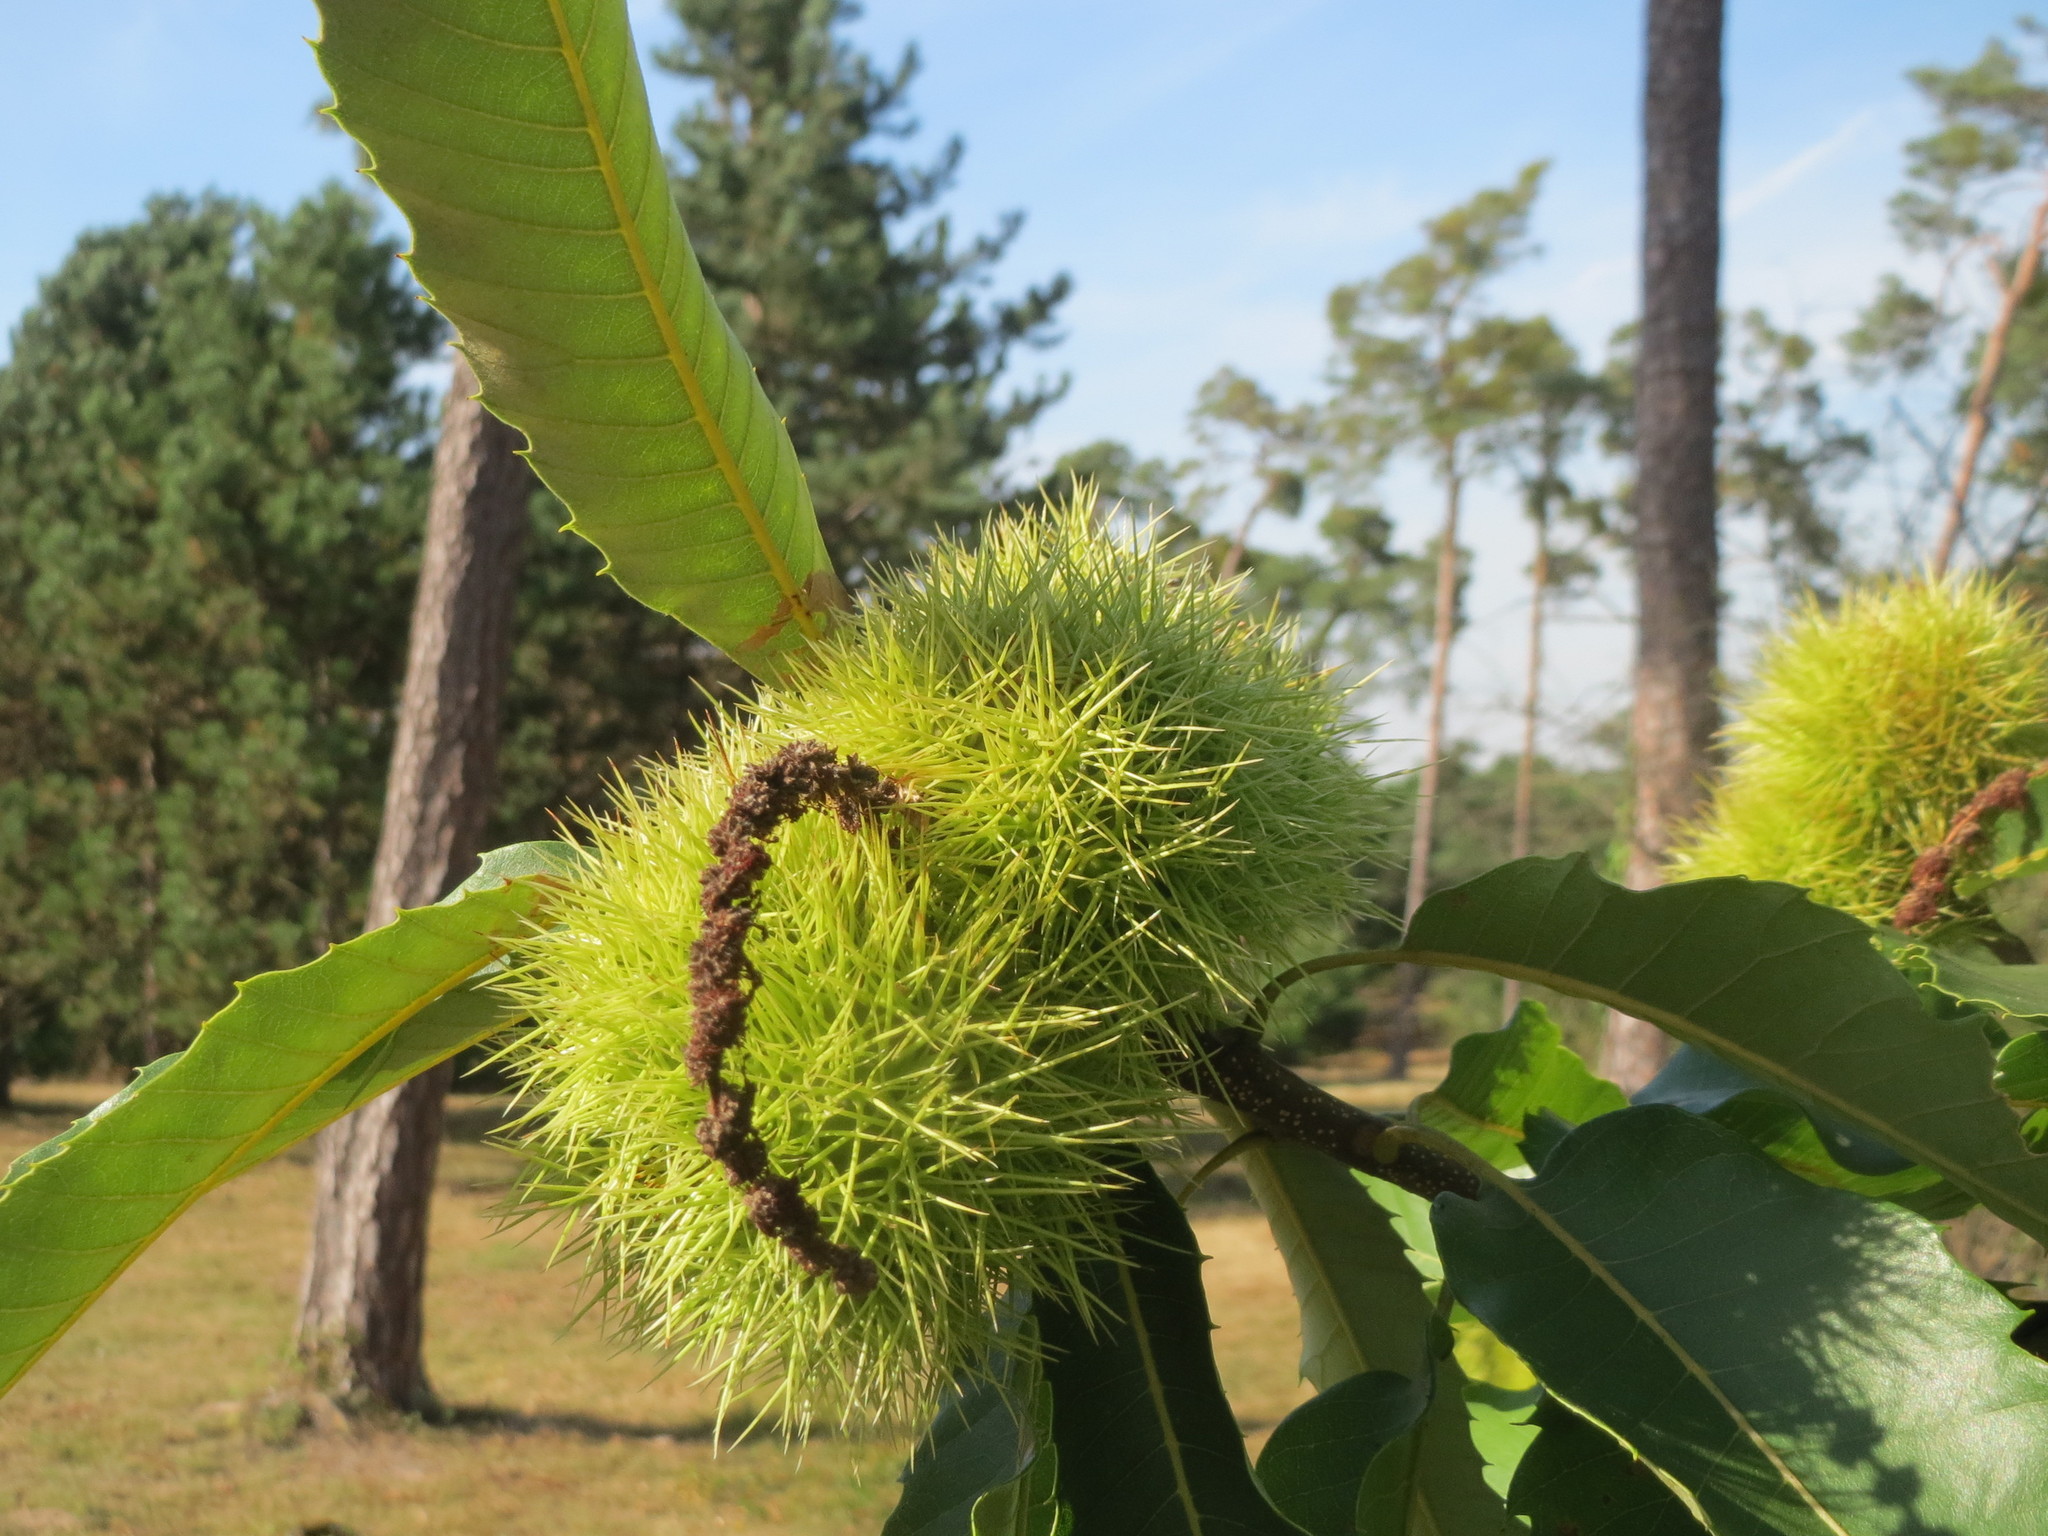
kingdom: Plantae
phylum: Tracheophyta
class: Magnoliopsida
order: Fagales
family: Fagaceae
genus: Castanea
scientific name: Castanea sativa
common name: Sweet chestnut
